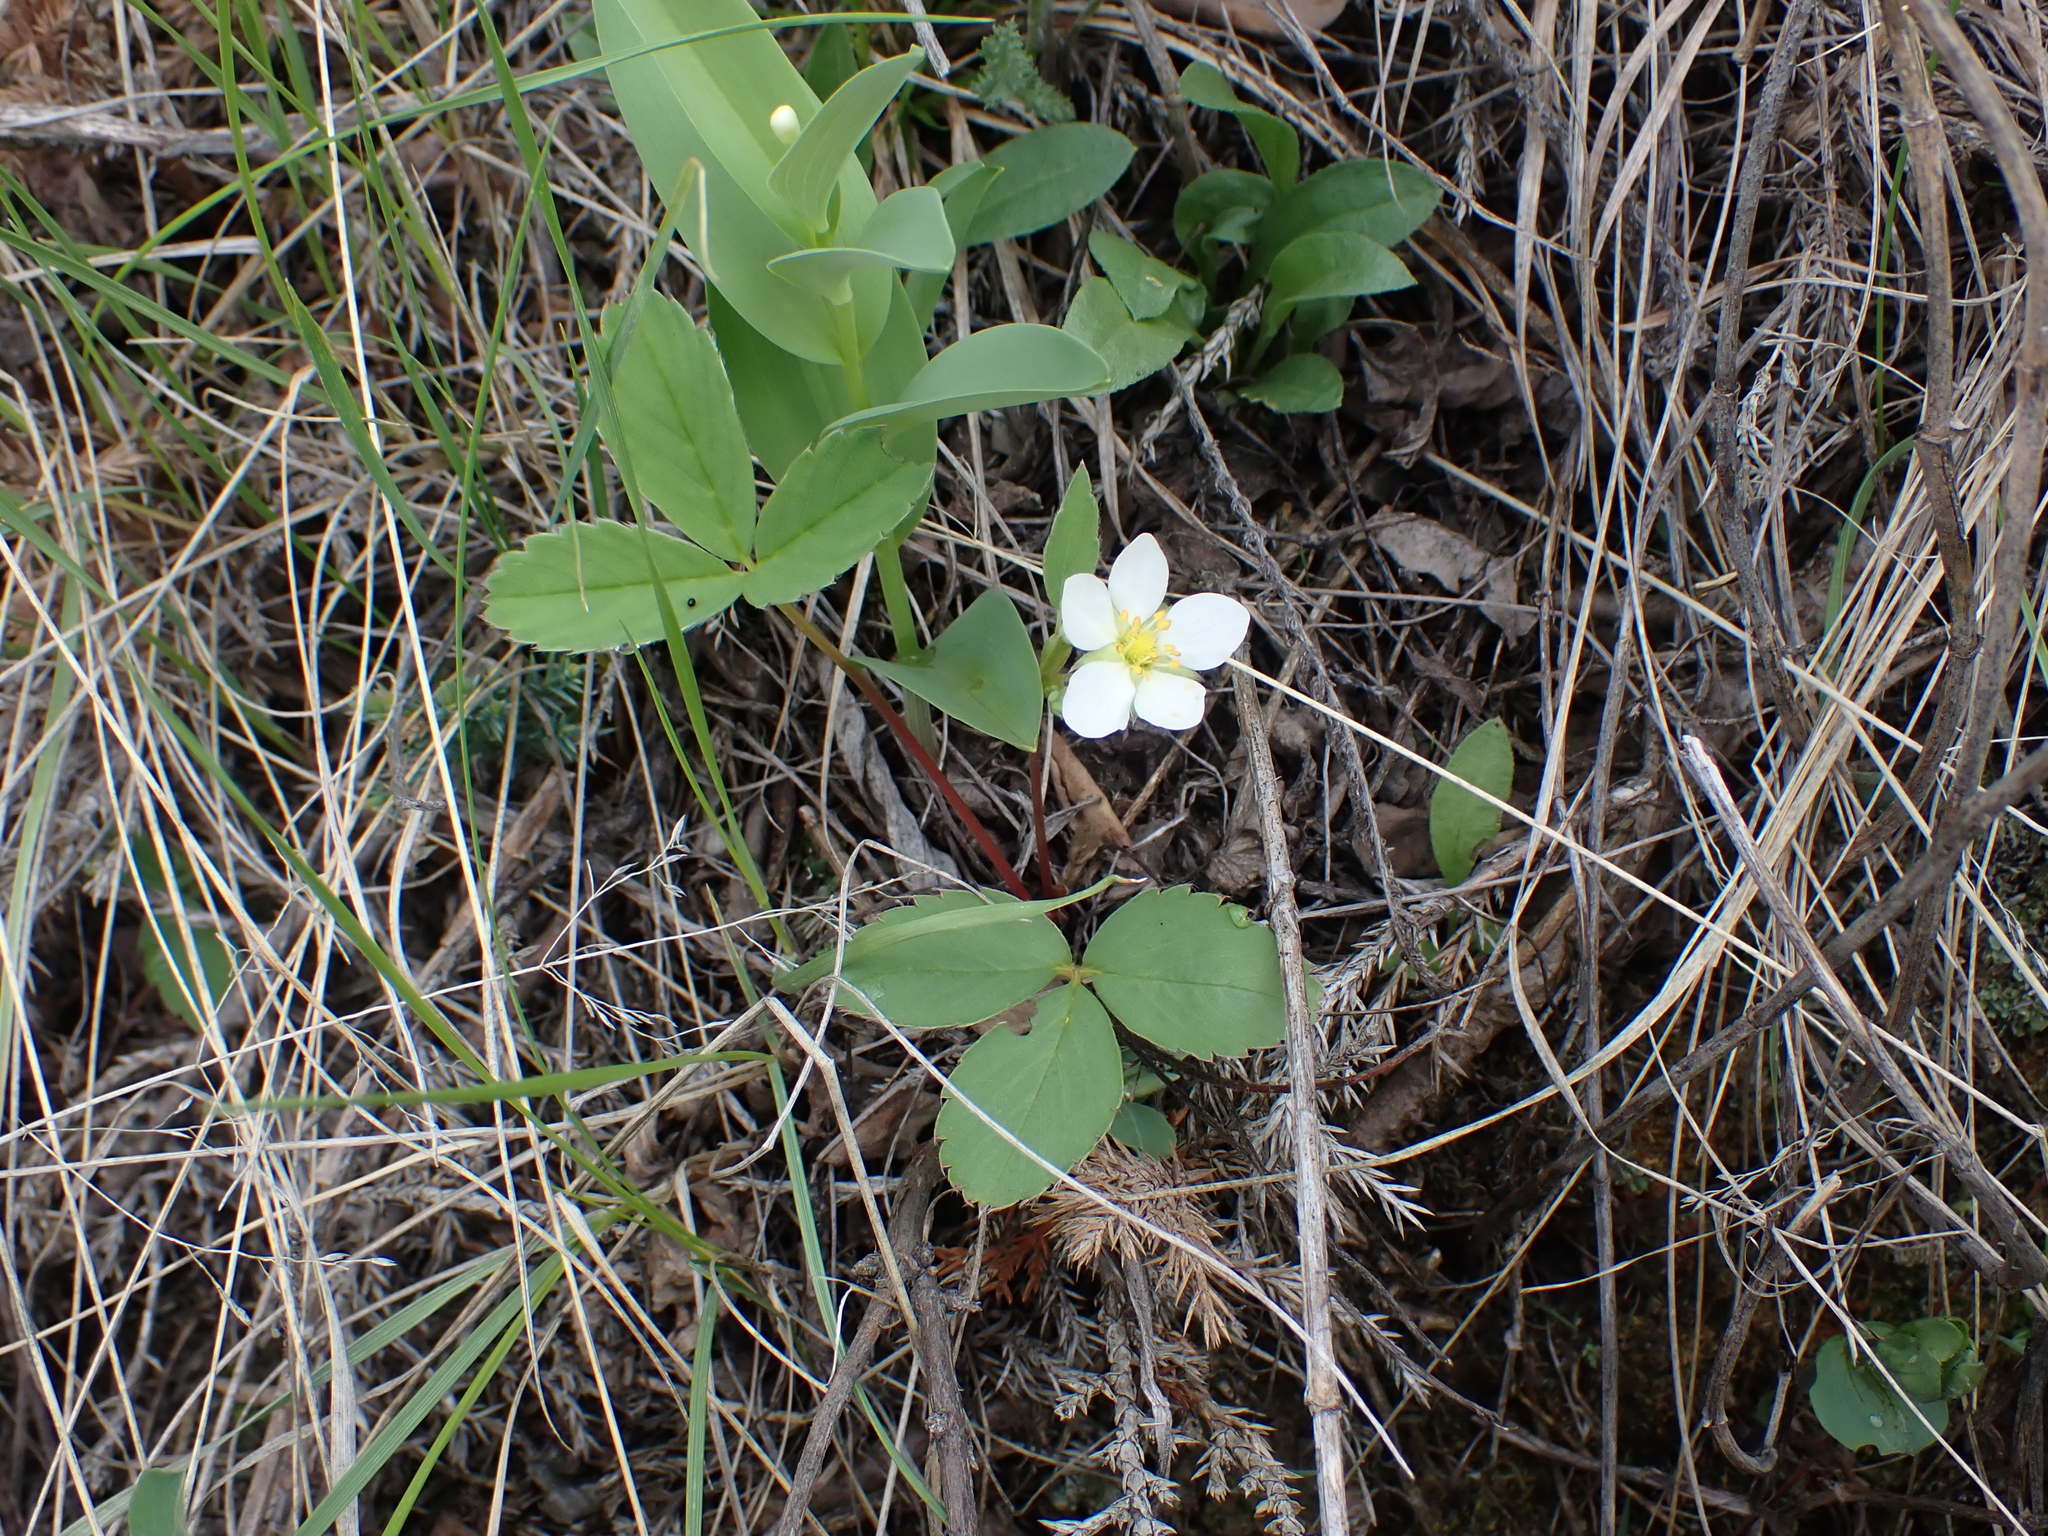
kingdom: Plantae
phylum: Tracheophyta
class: Magnoliopsida
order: Rosales
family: Rosaceae
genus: Fragaria
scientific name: Fragaria virginiana
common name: Thickleaved wild strawberry
